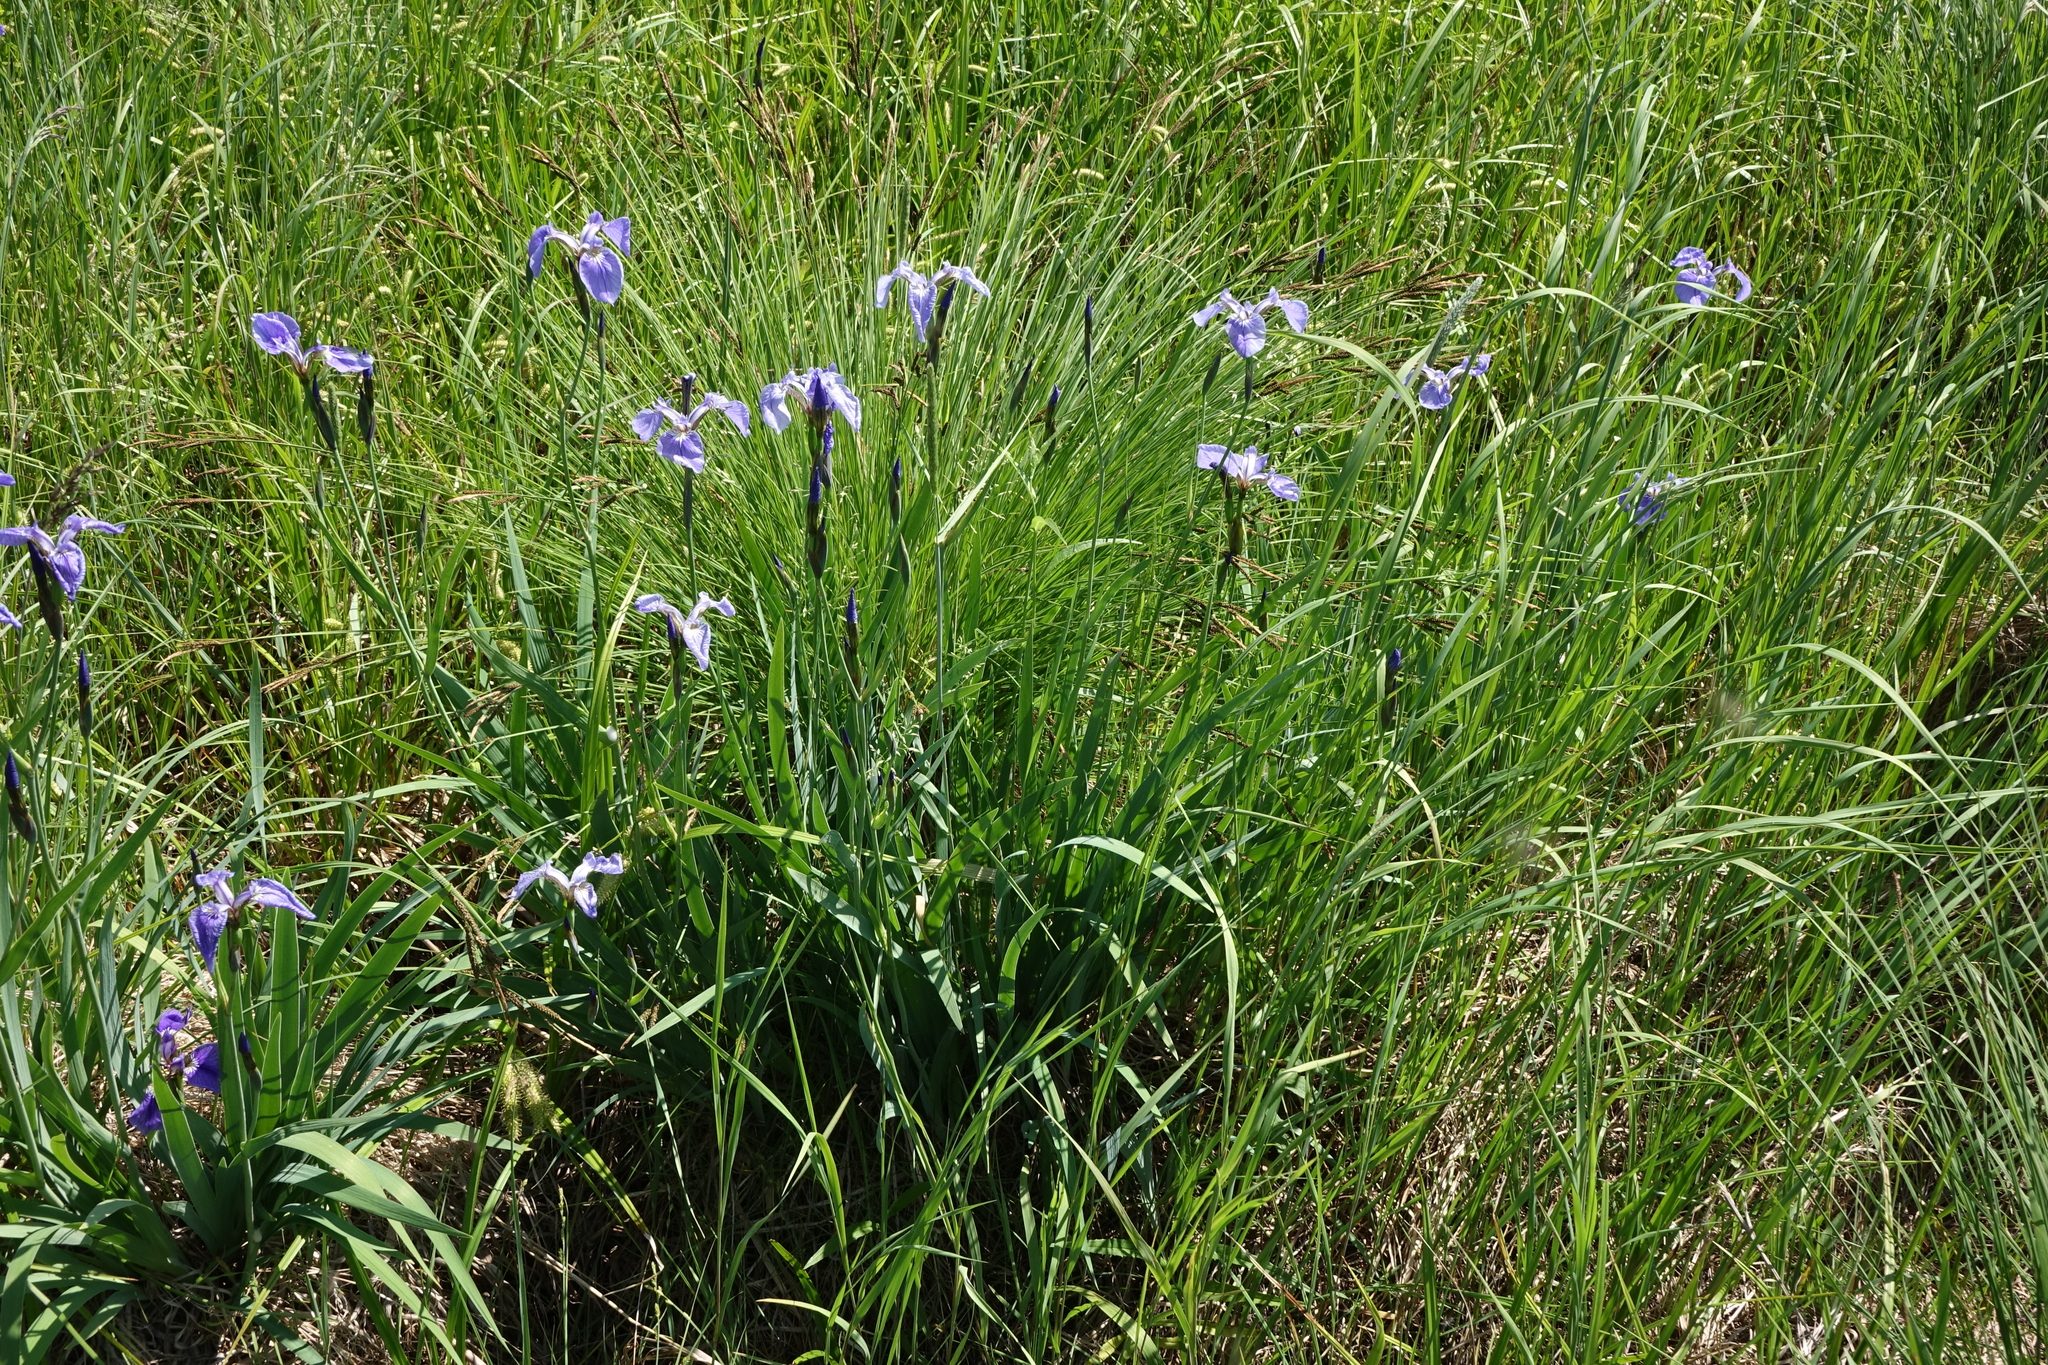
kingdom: Plantae
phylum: Tracheophyta
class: Liliopsida
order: Asparagales
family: Iridaceae
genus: Iris
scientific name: Iris setosa
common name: Arctic blue flag
